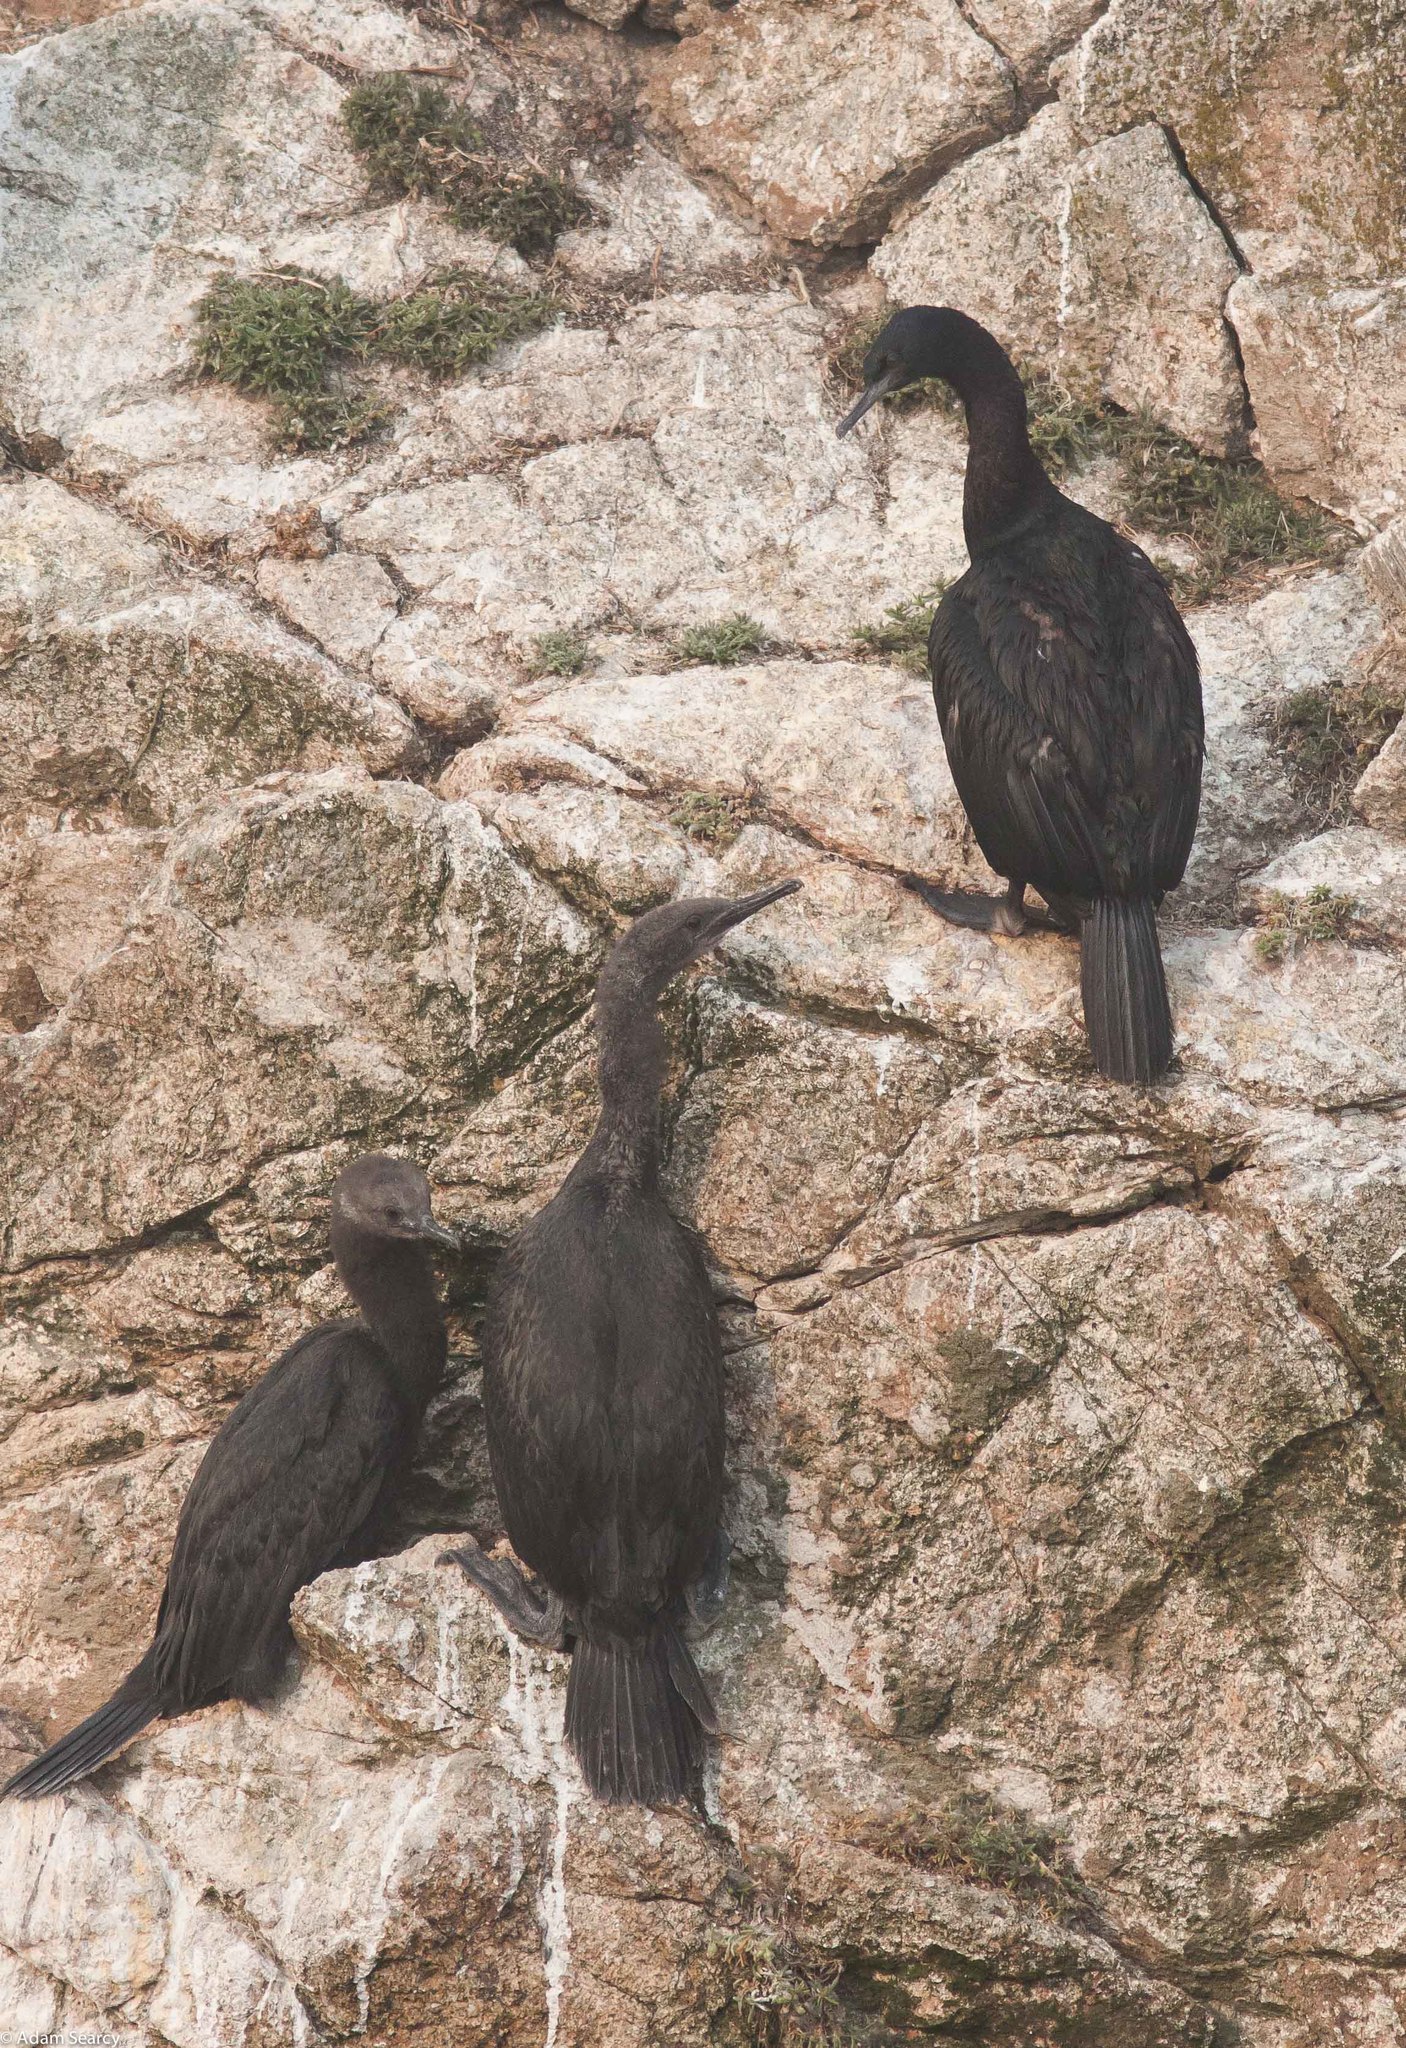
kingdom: Animalia
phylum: Chordata
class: Aves
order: Suliformes
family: Phalacrocoracidae
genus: Phalacrocorax
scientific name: Phalacrocorax pelagicus
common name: Pelagic cormorant
